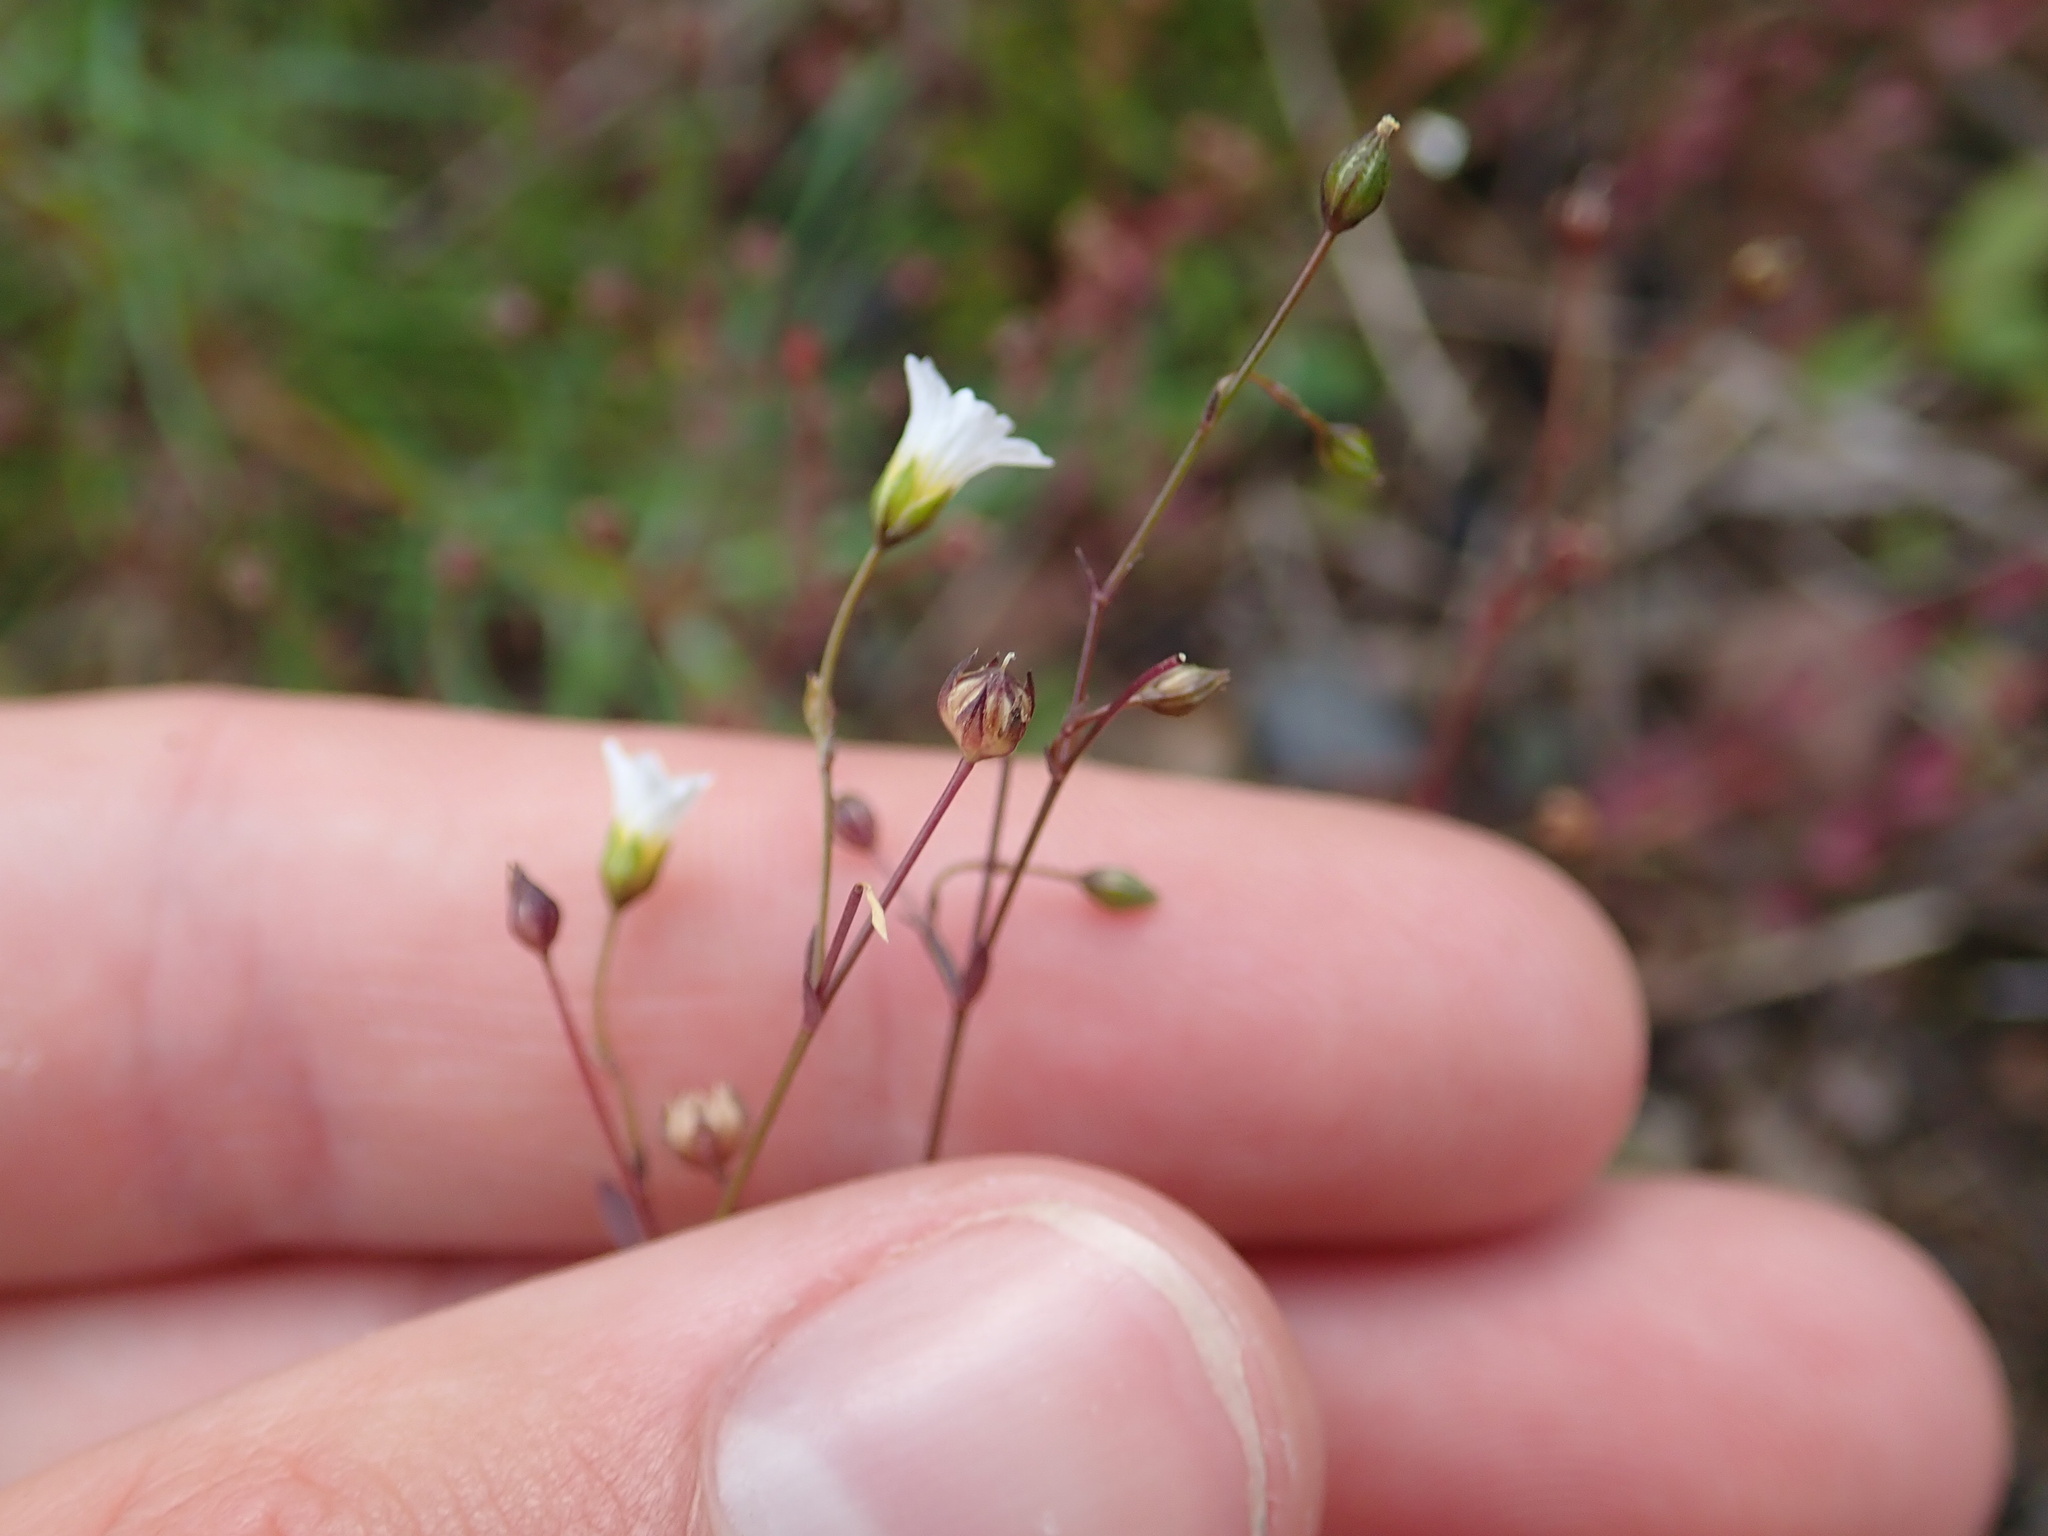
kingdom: Plantae
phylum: Tracheophyta
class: Magnoliopsida
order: Malpighiales
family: Linaceae
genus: Linum
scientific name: Linum catharticum
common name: Fairy flax
